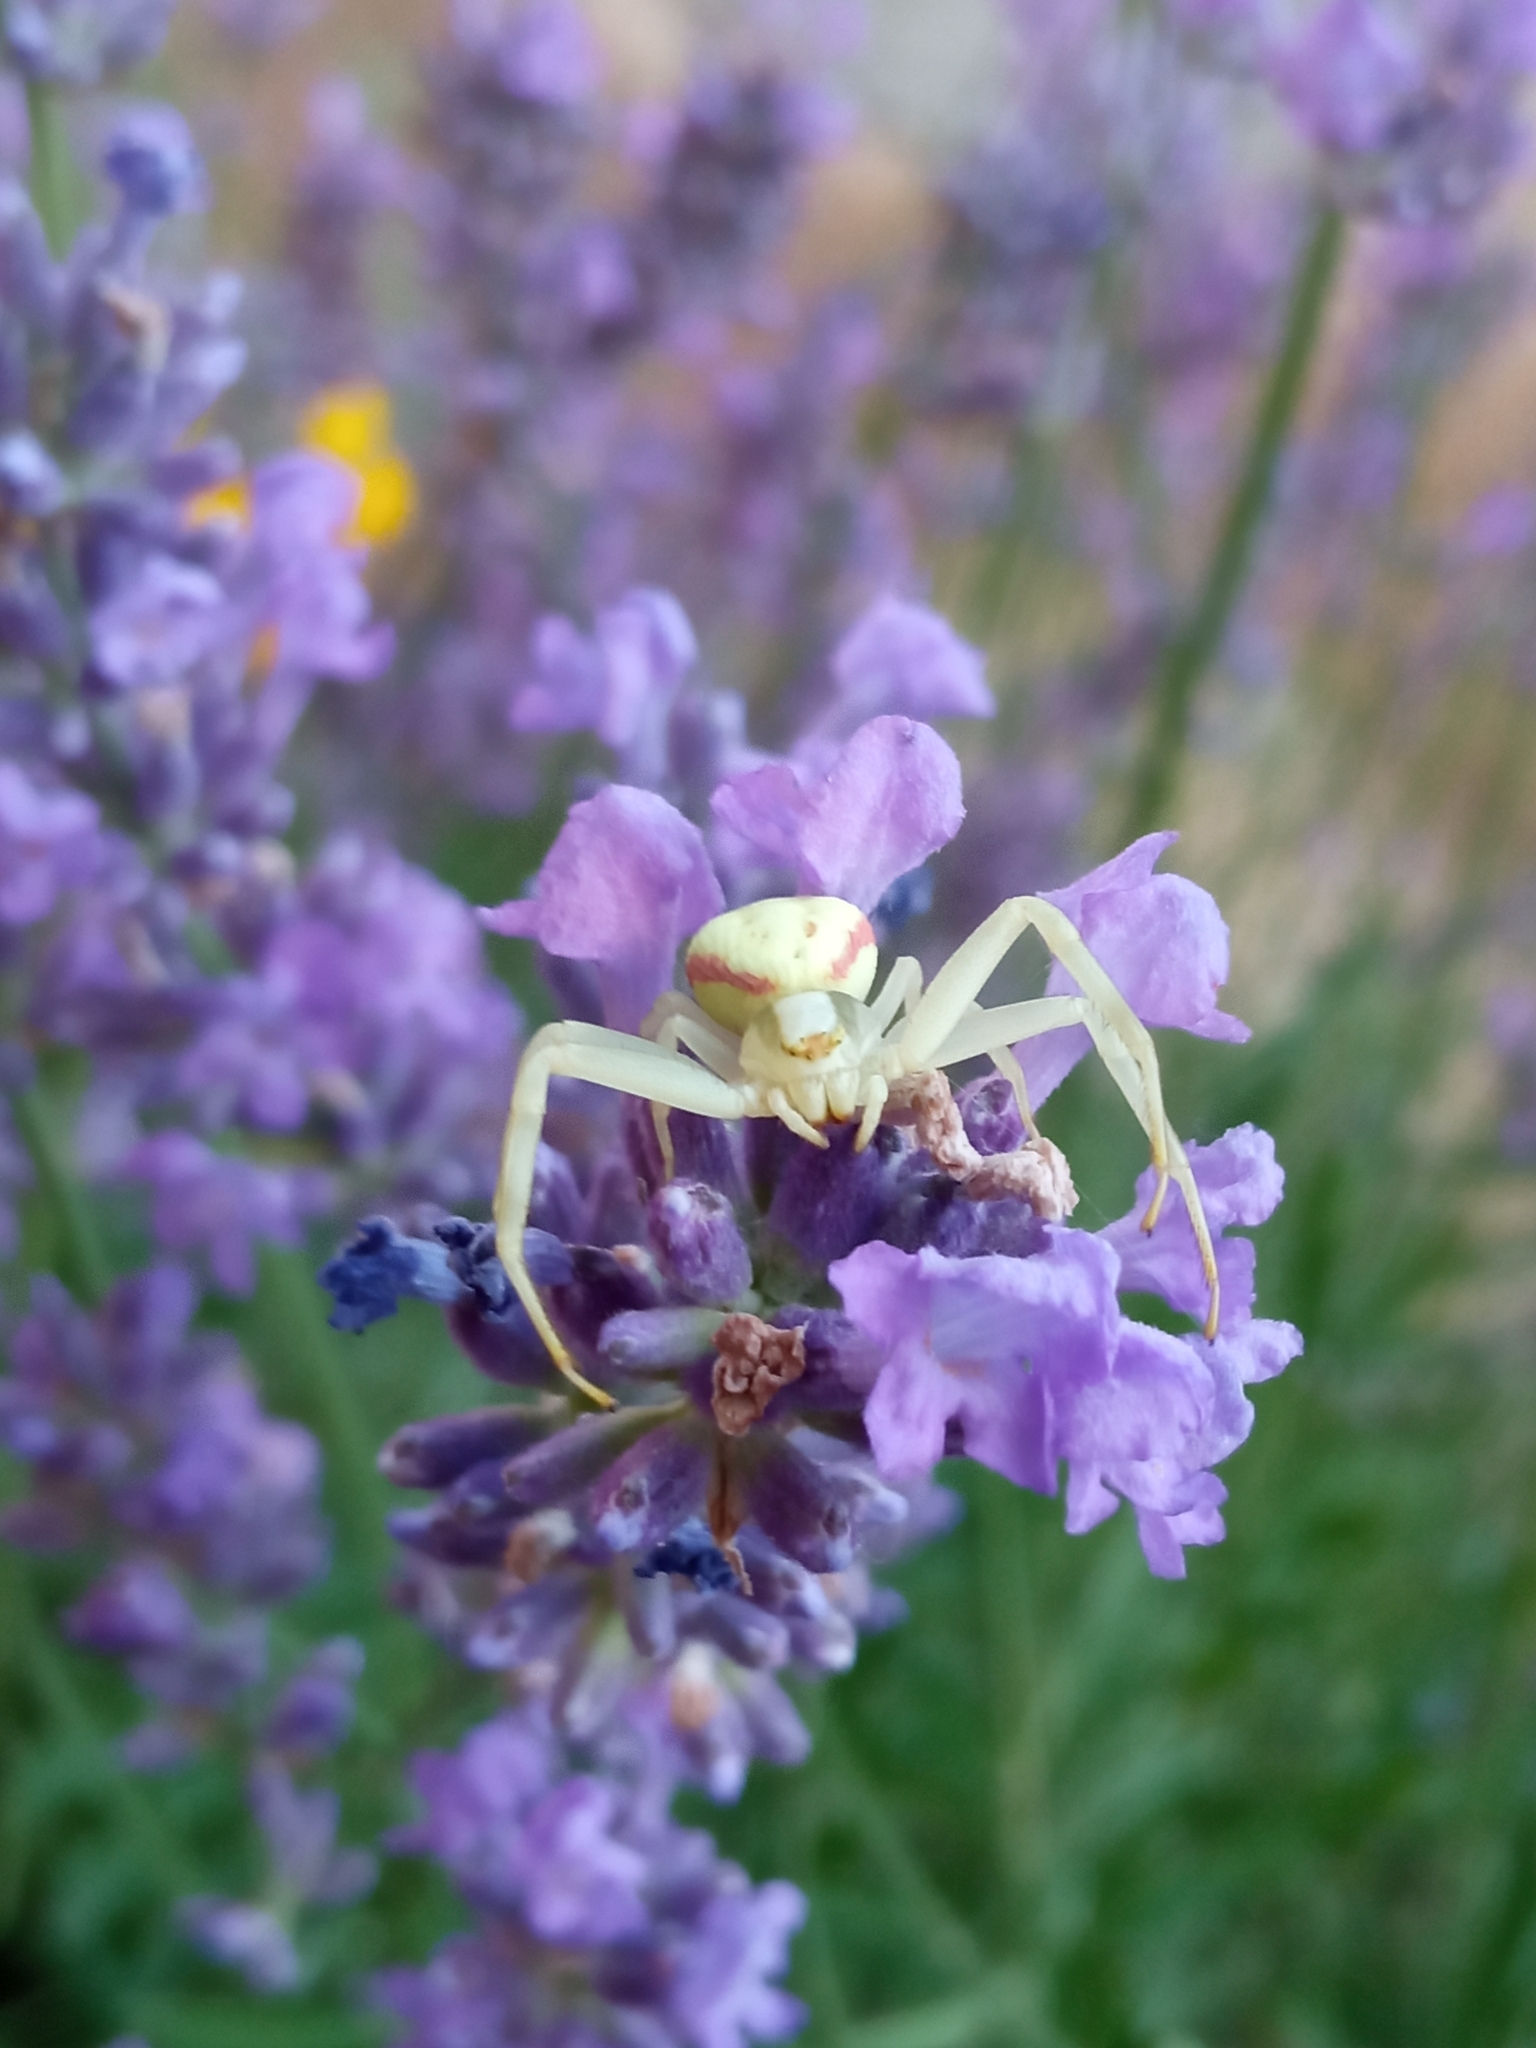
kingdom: Animalia
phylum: Arthropoda
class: Arachnida
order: Araneae
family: Thomisidae
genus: Misumena
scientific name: Misumena vatia
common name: Goldenrod crab spider
